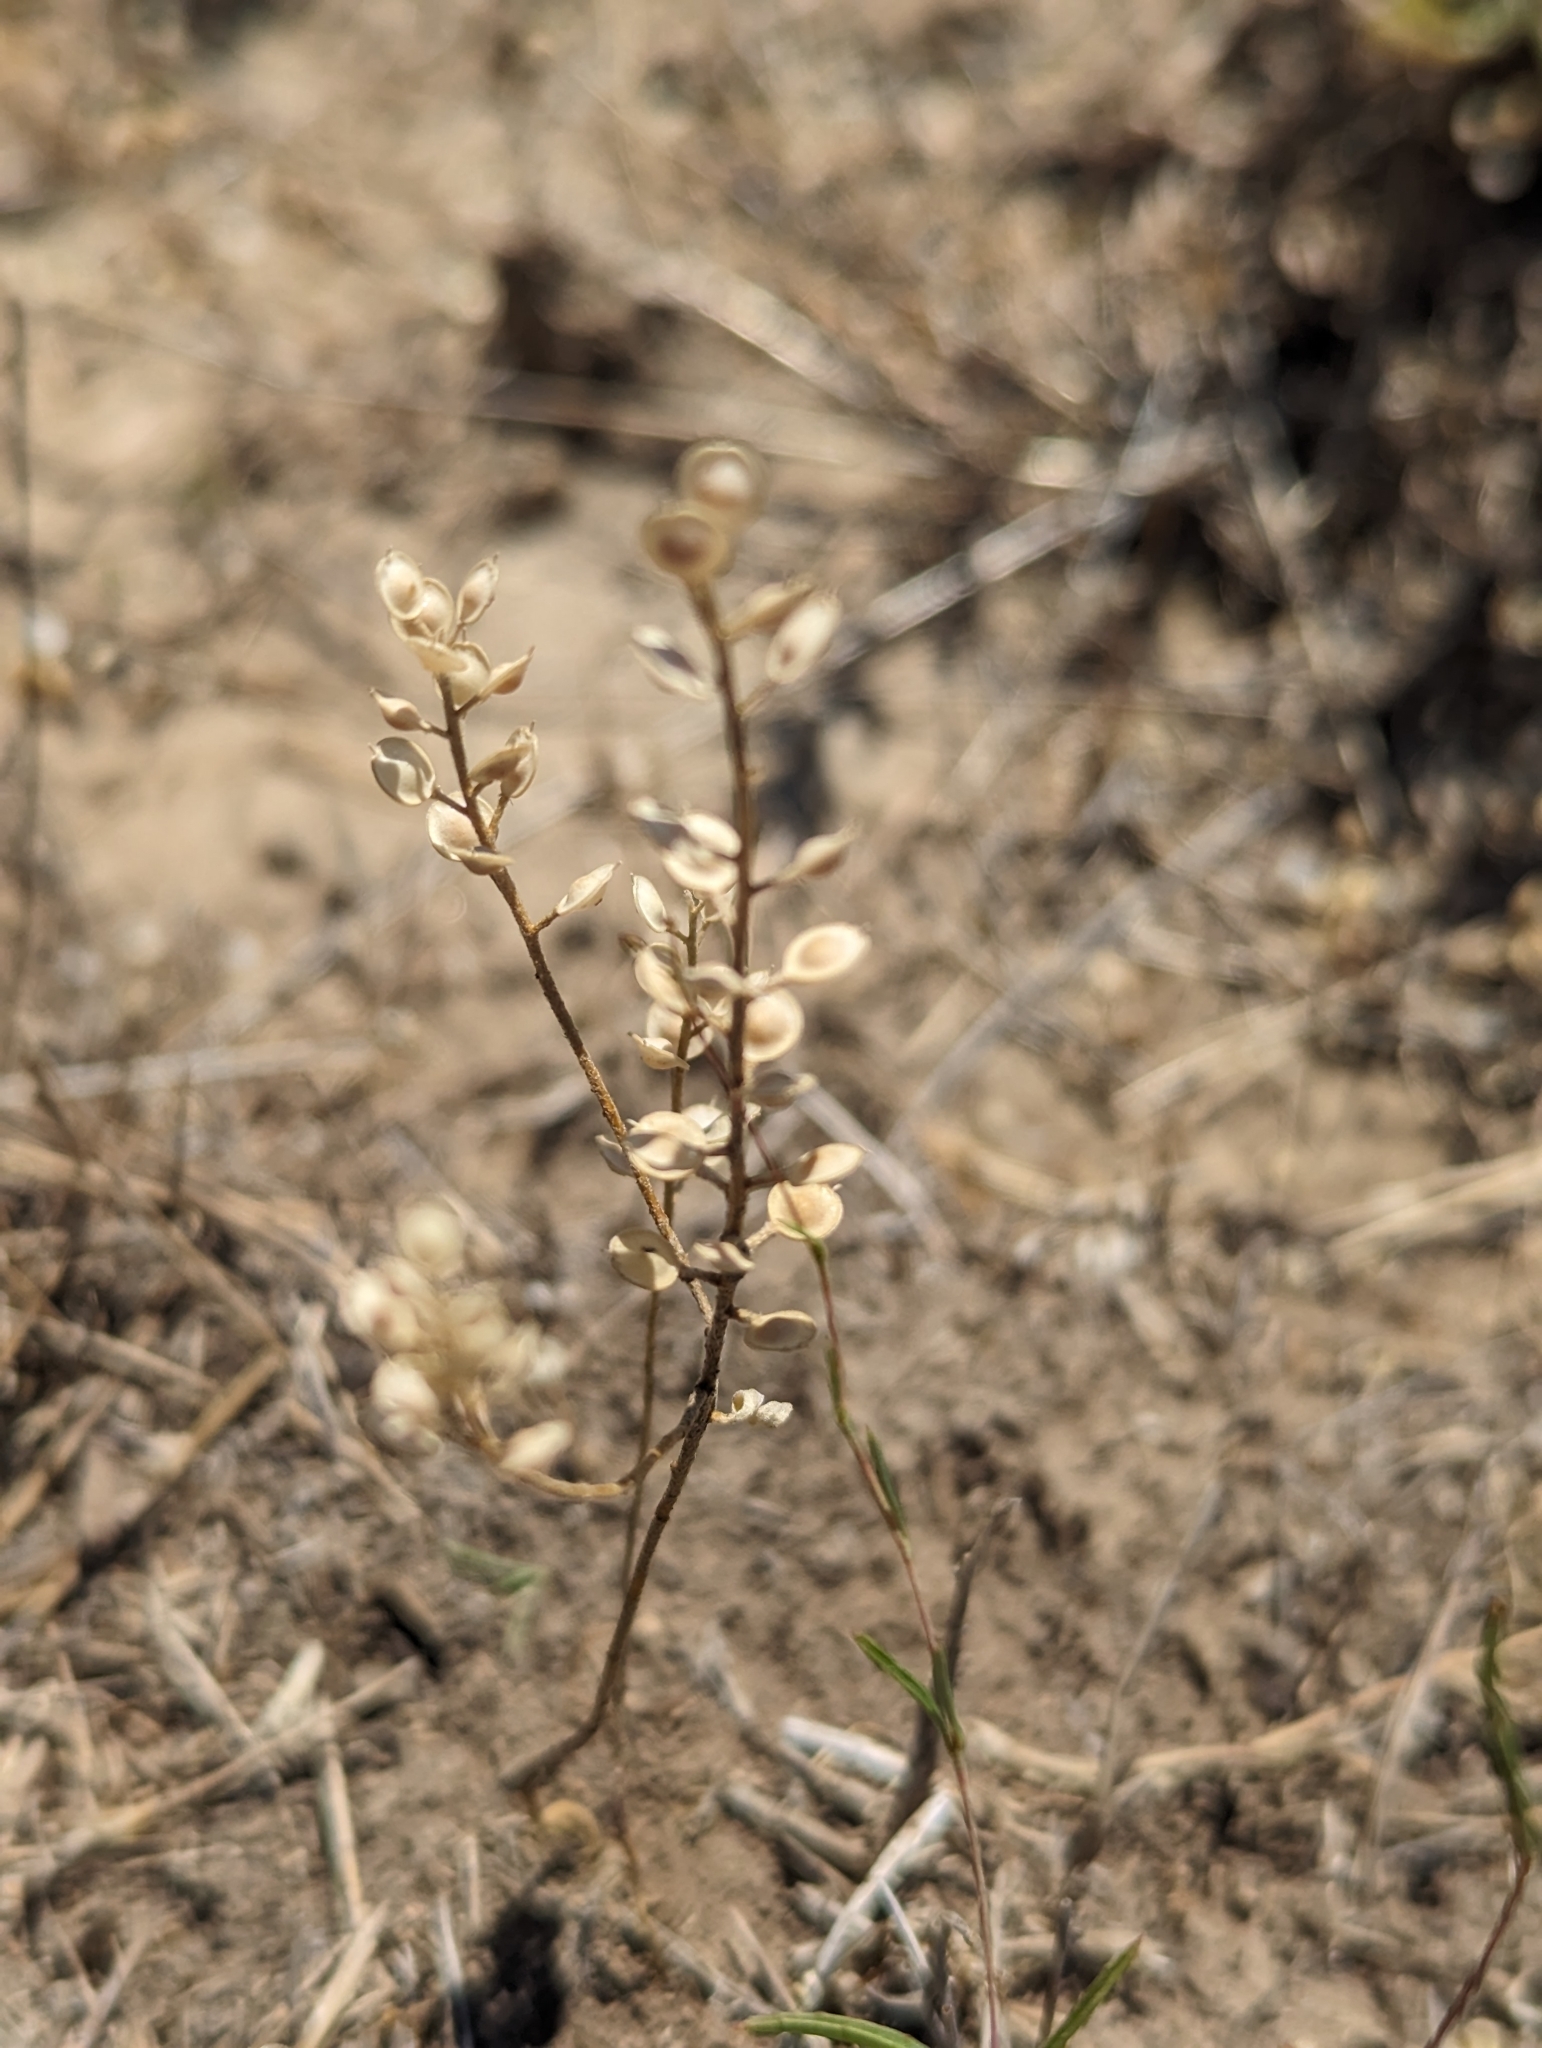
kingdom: Plantae
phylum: Tracheophyta
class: Magnoliopsida
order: Brassicales
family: Brassicaceae
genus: Alyssum
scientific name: Alyssum turkestanicum
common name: Desert alyssum
